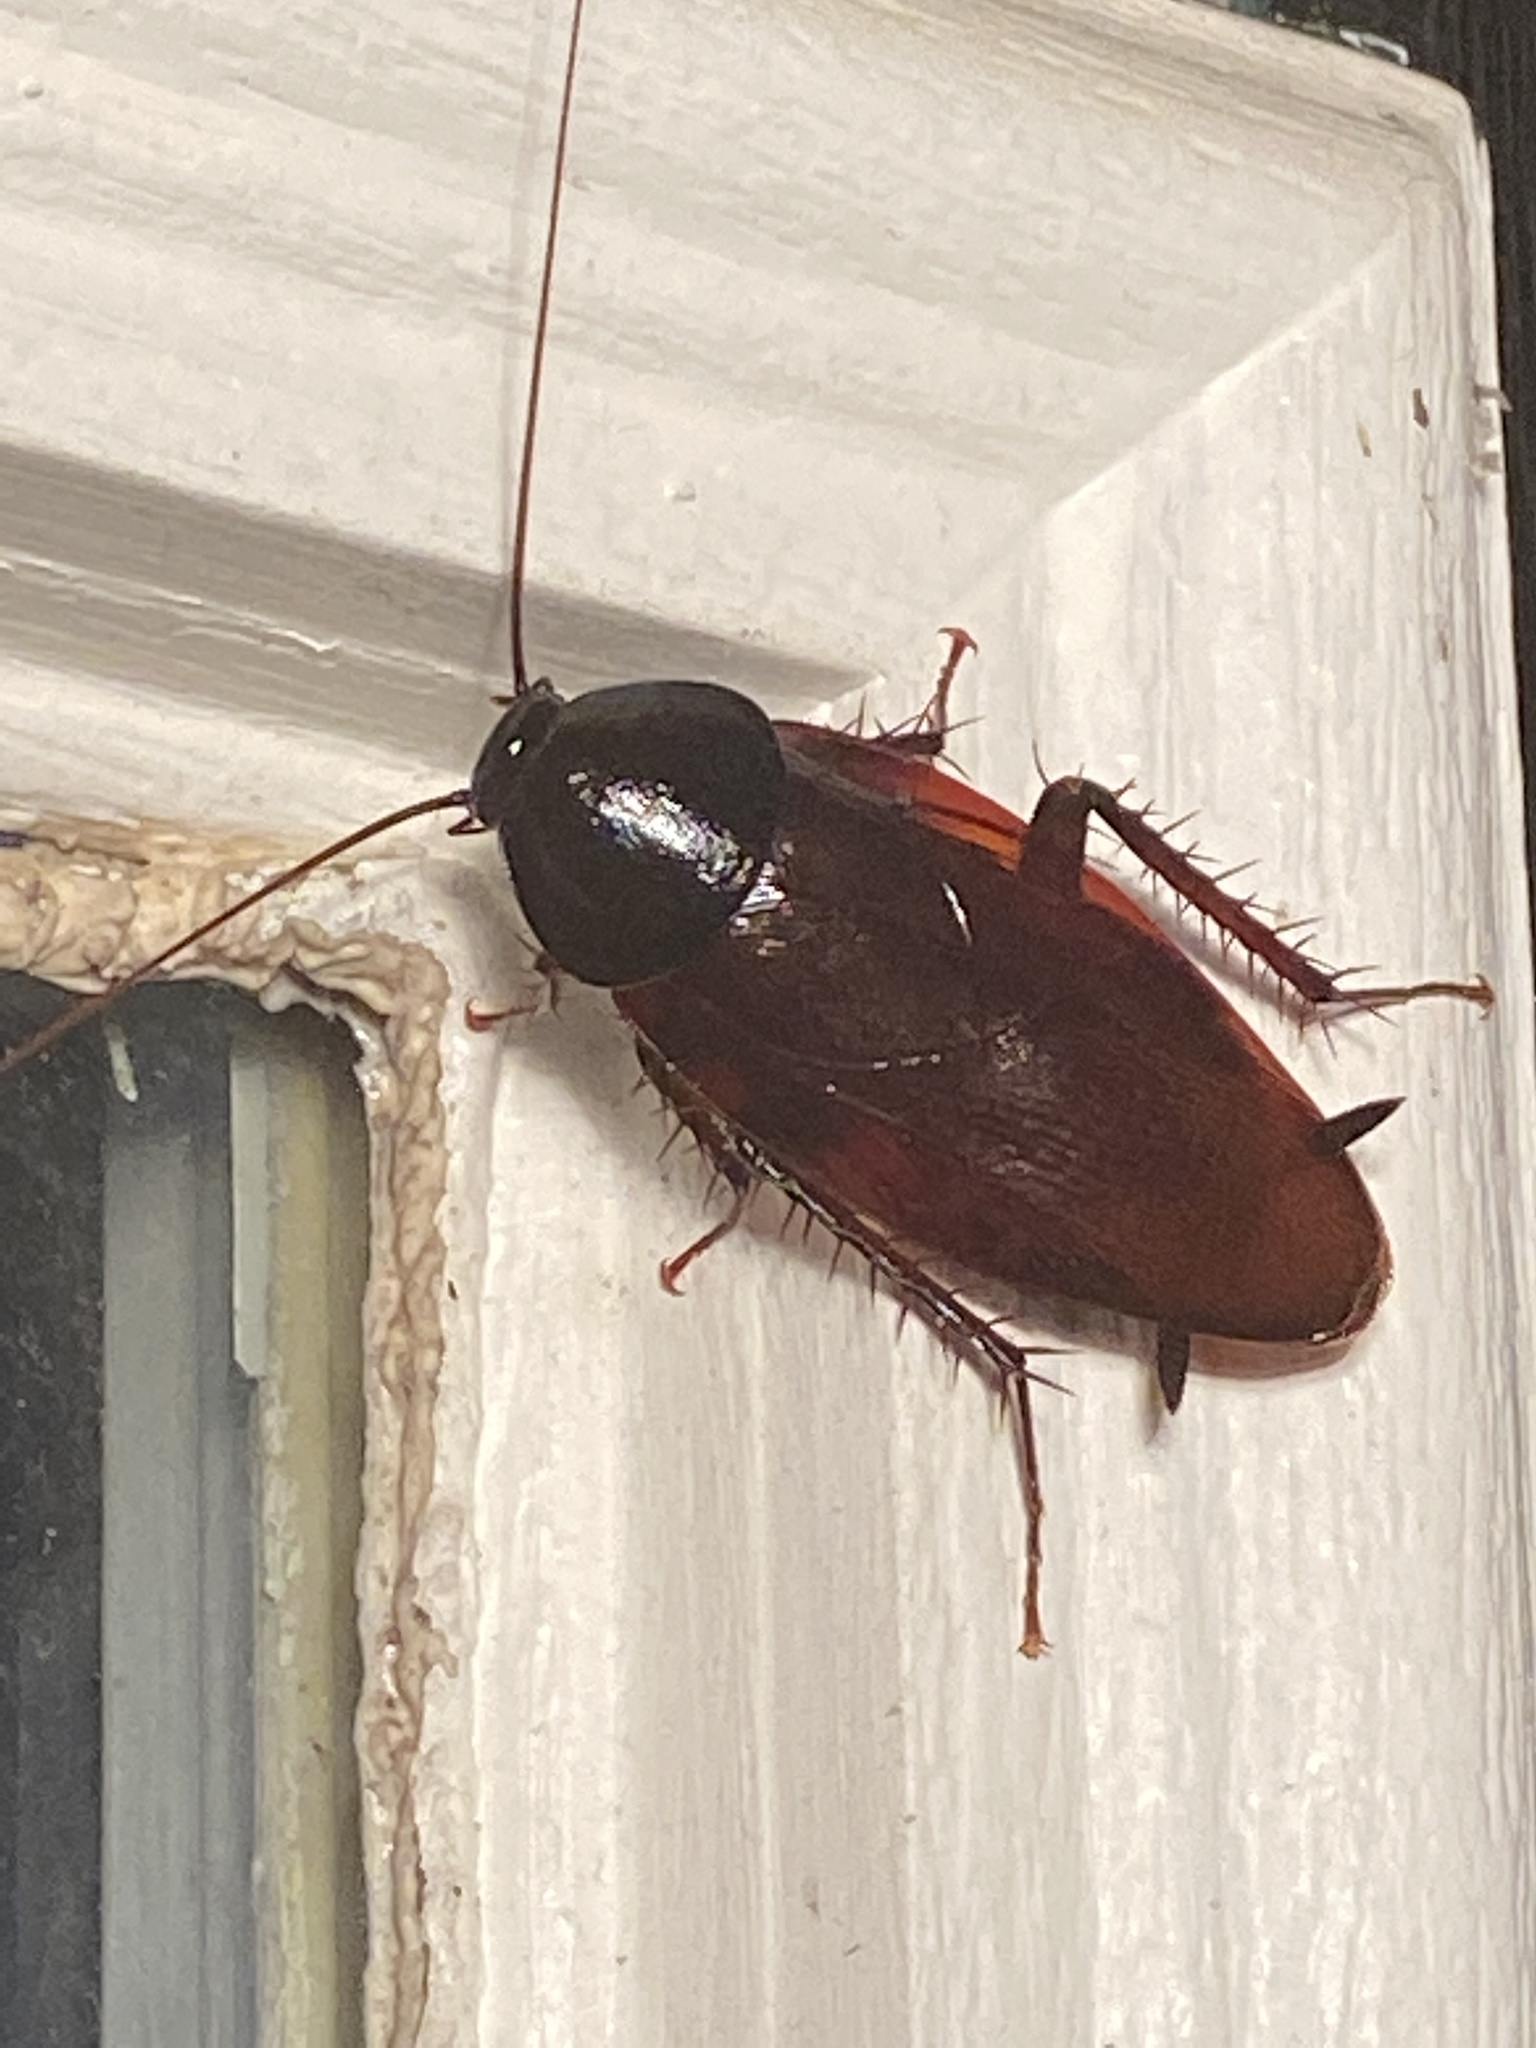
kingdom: Animalia
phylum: Arthropoda
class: Insecta
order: Blattodea
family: Blattidae
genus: Periplaneta
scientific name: Periplaneta fuliginosa
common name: Smokeybrown cockroad
